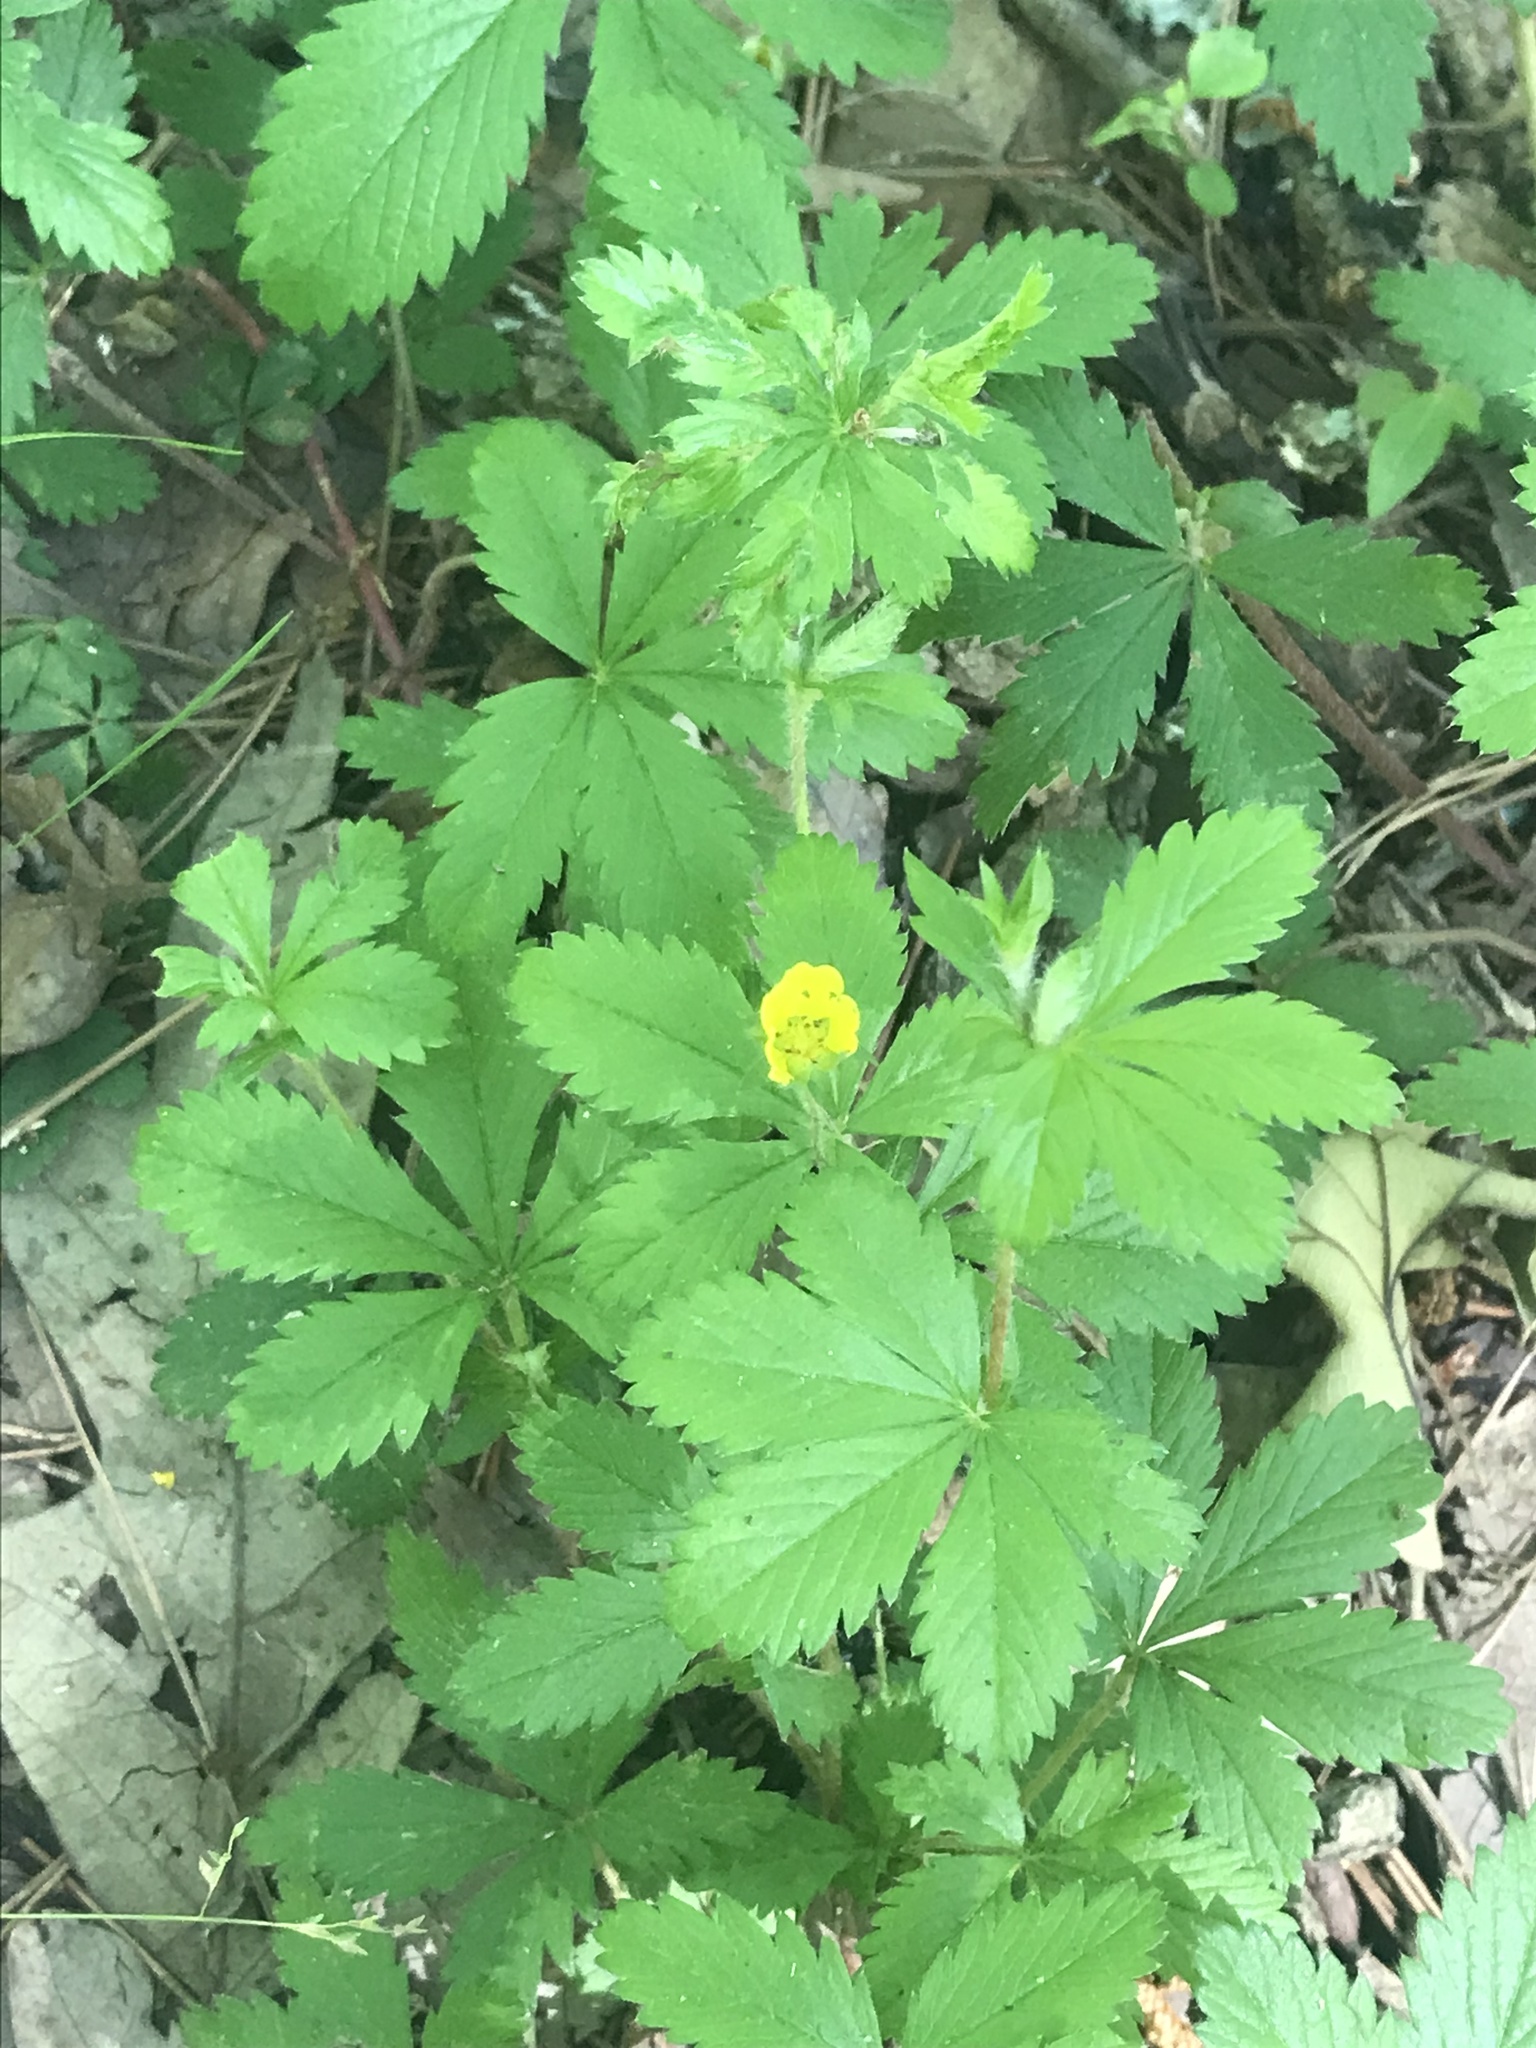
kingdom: Plantae
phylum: Tracheophyta
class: Magnoliopsida
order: Rosales
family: Rosaceae
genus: Potentilla
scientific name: Potentilla simplex
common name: Old field cinquefoil
